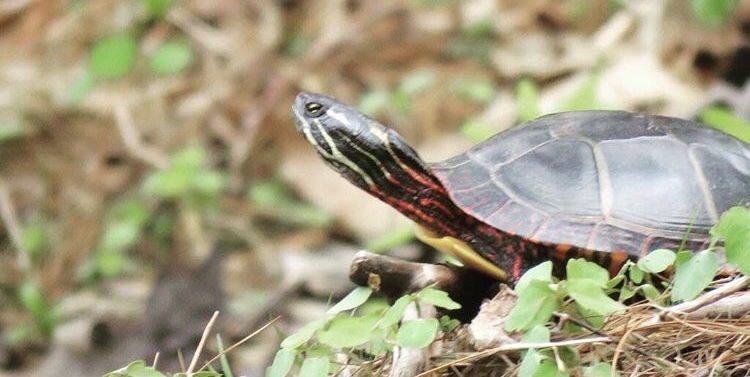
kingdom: Animalia
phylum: Chordata
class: Testudines
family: Emydidae
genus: Chrysemys
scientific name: Chrysemys picta
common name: Painted turtle
